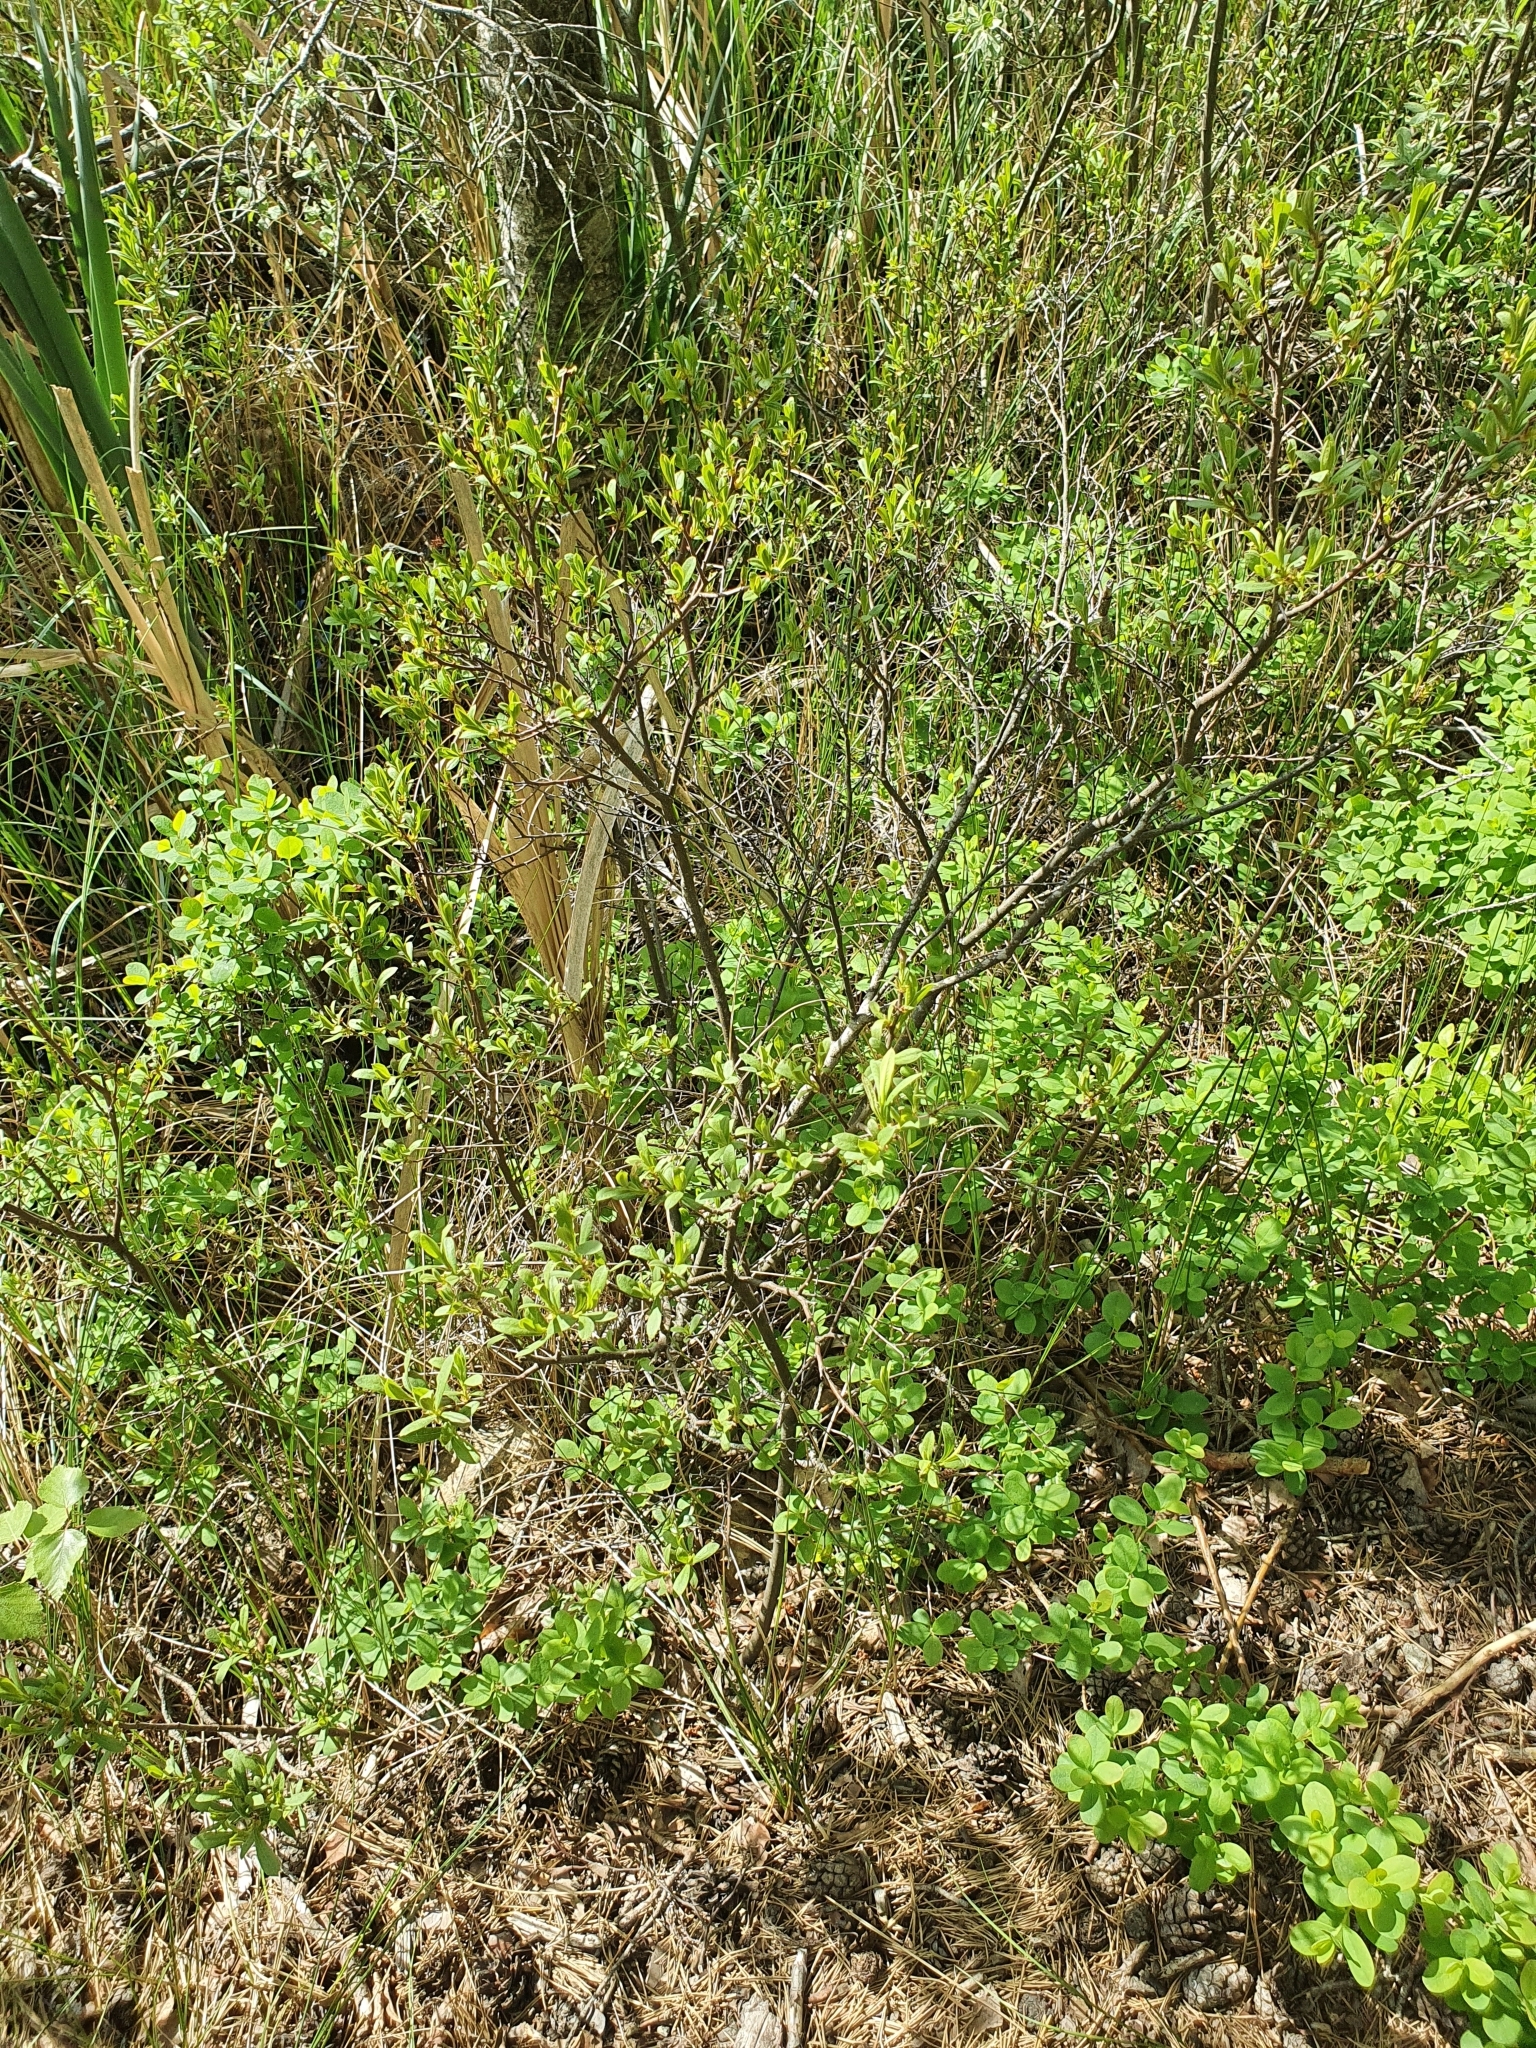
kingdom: Plantae
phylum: Tracheophyta
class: Magnoliopsida
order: Fagales
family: Myricaceae
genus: Myrica
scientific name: Myrica gale
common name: Sweet gale
